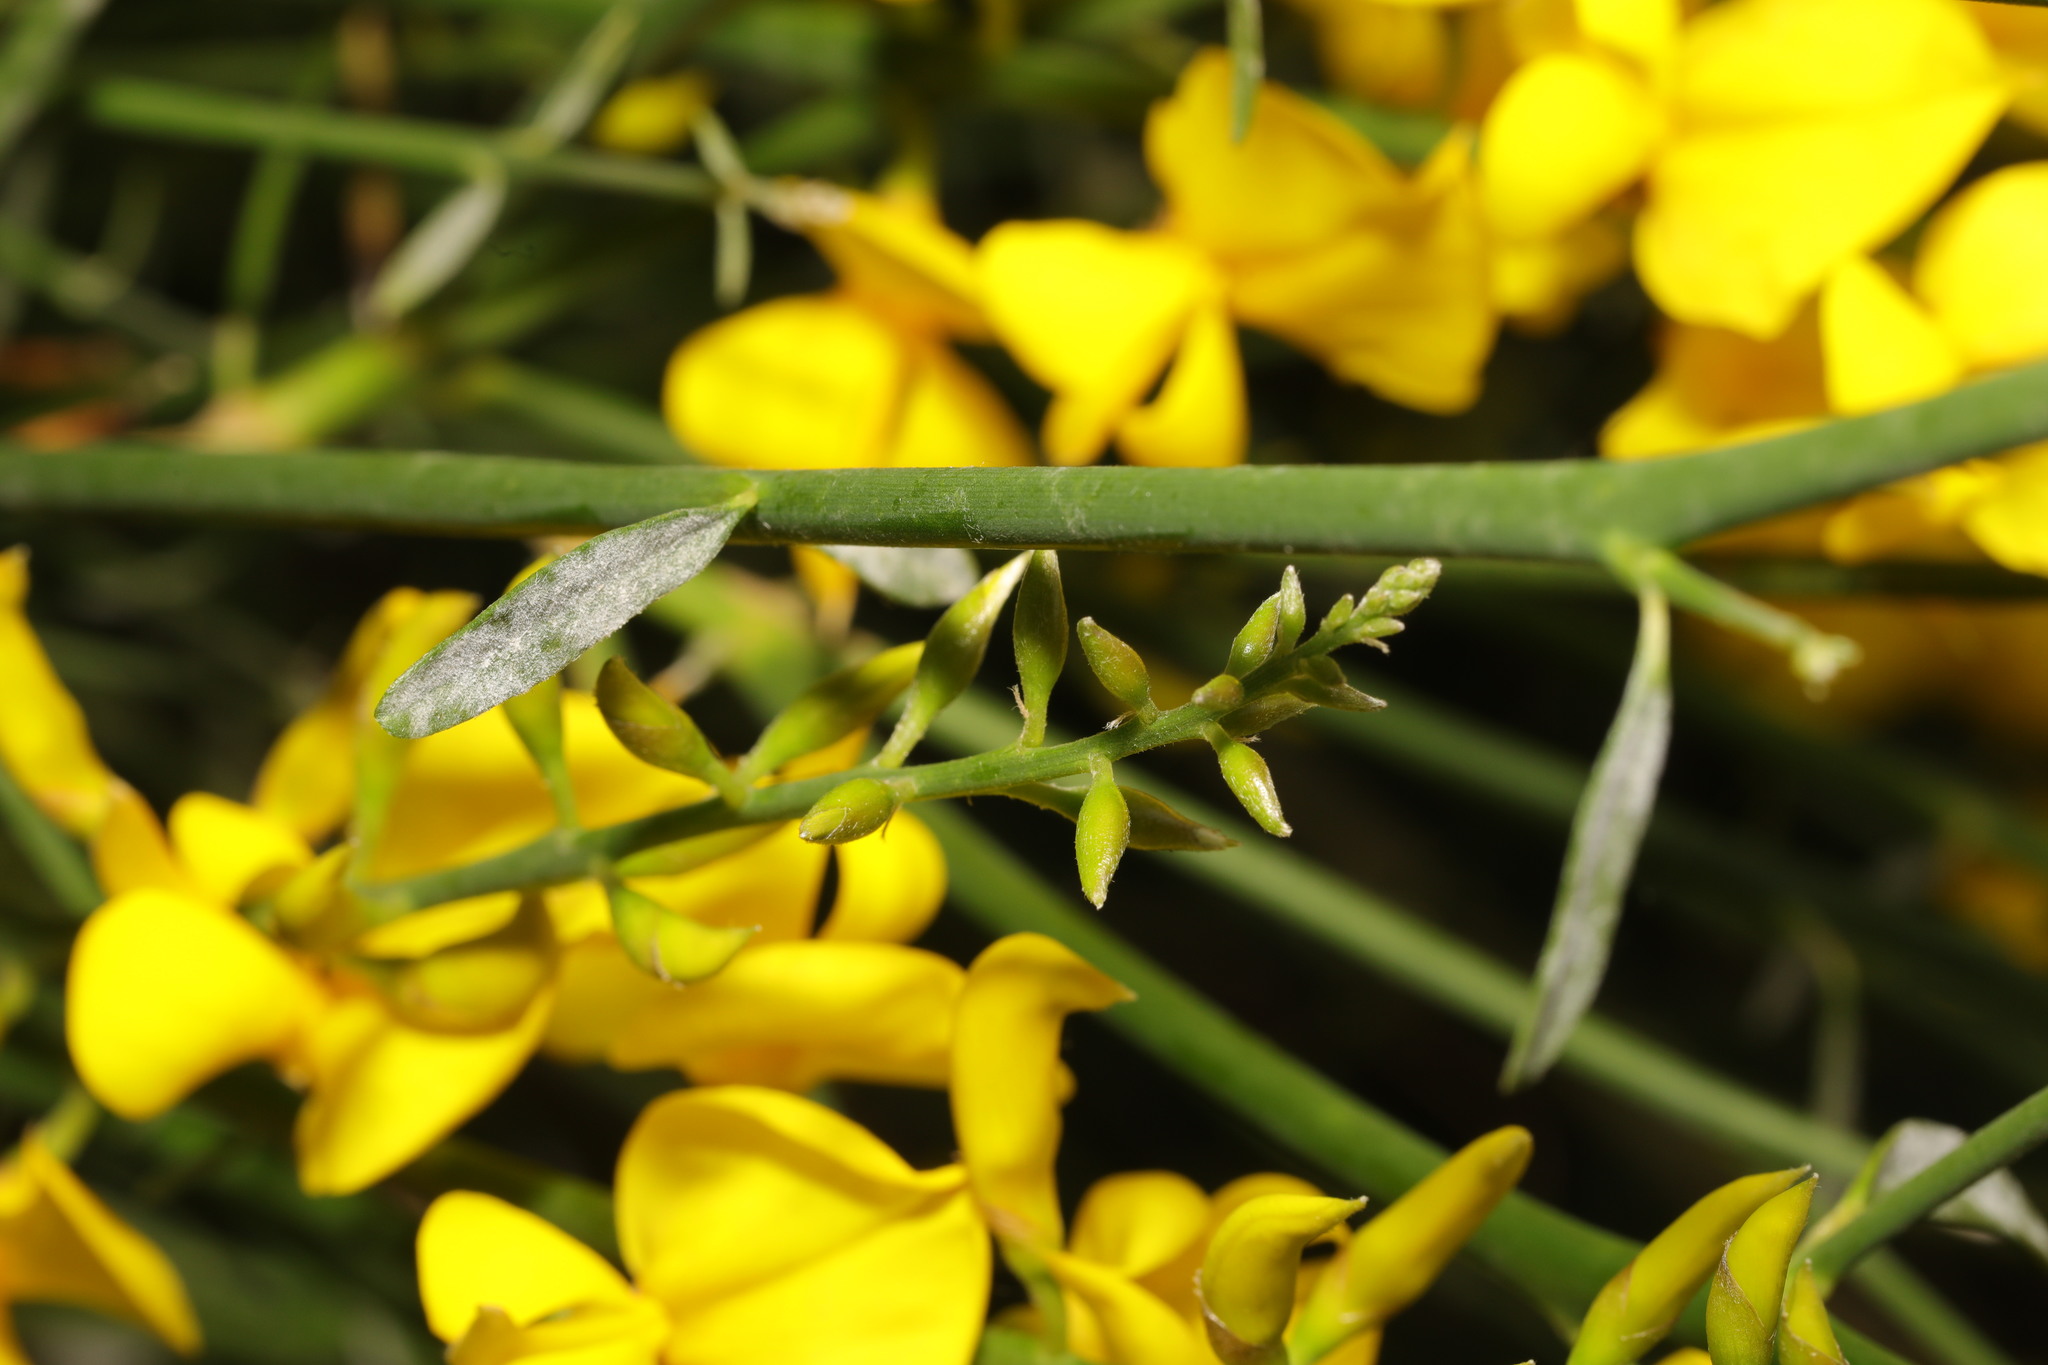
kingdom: Plantae
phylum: Tracheophyta
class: Magnoliopsida
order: Fabales
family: Fabaceae
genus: Spartium
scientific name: Spartium junceum
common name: Spanish broom
